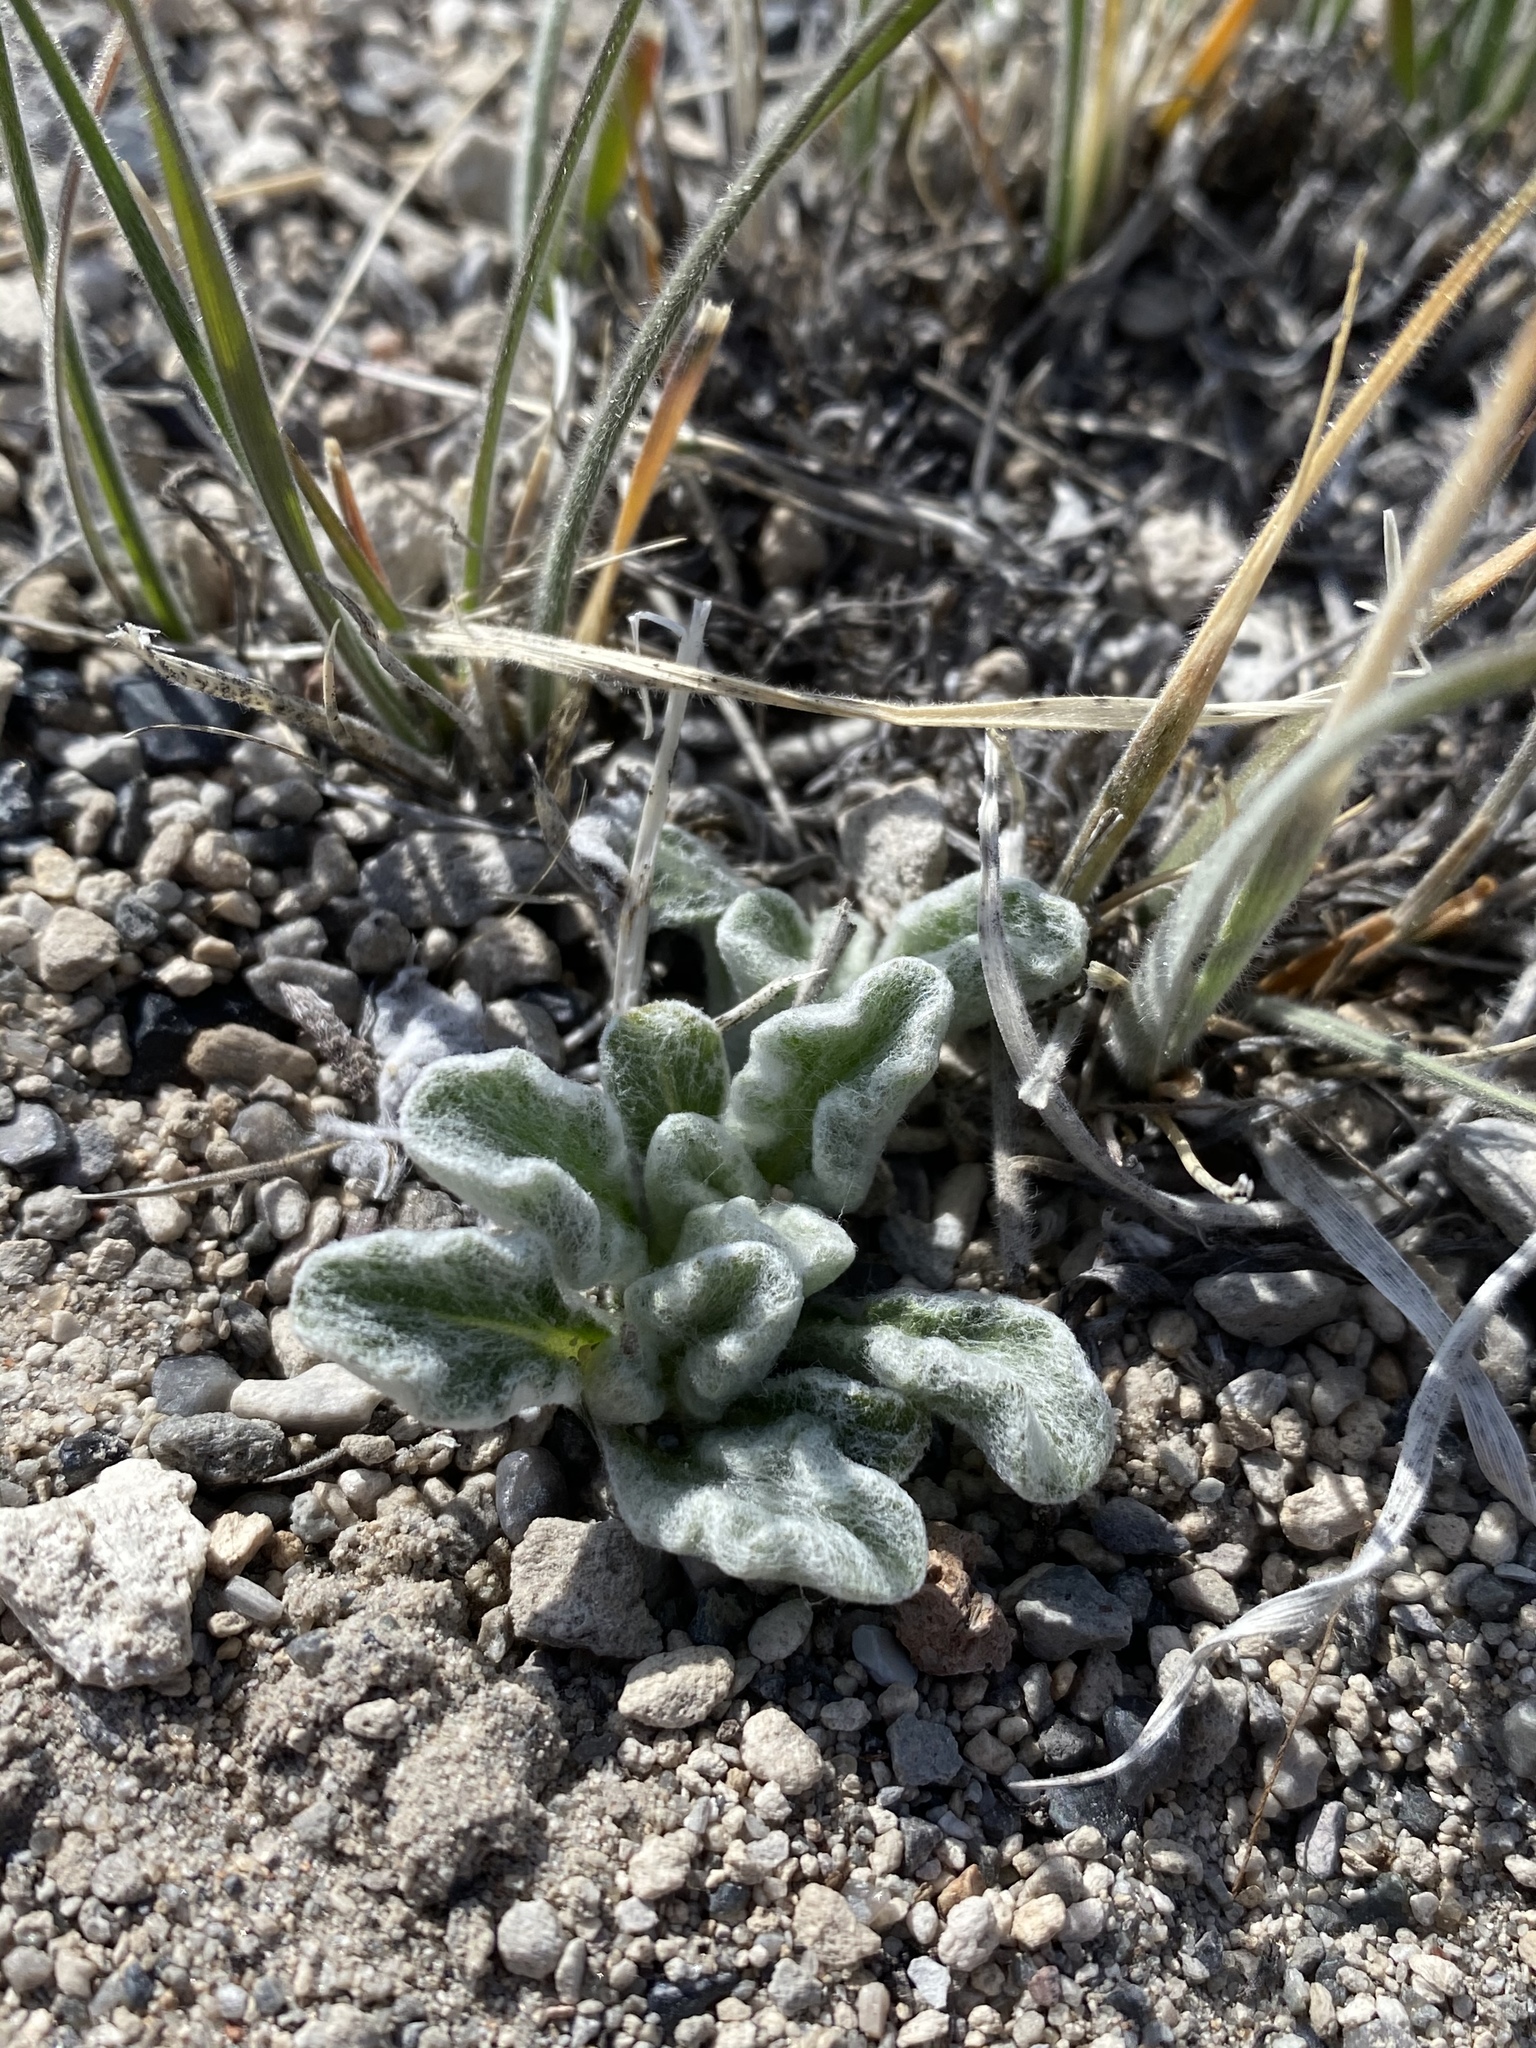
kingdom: Plantae
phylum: Tracheophyta
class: Magnoliopsida
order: Asterales
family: Asteraceae
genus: Hulsea
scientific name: Hulsea vestita
